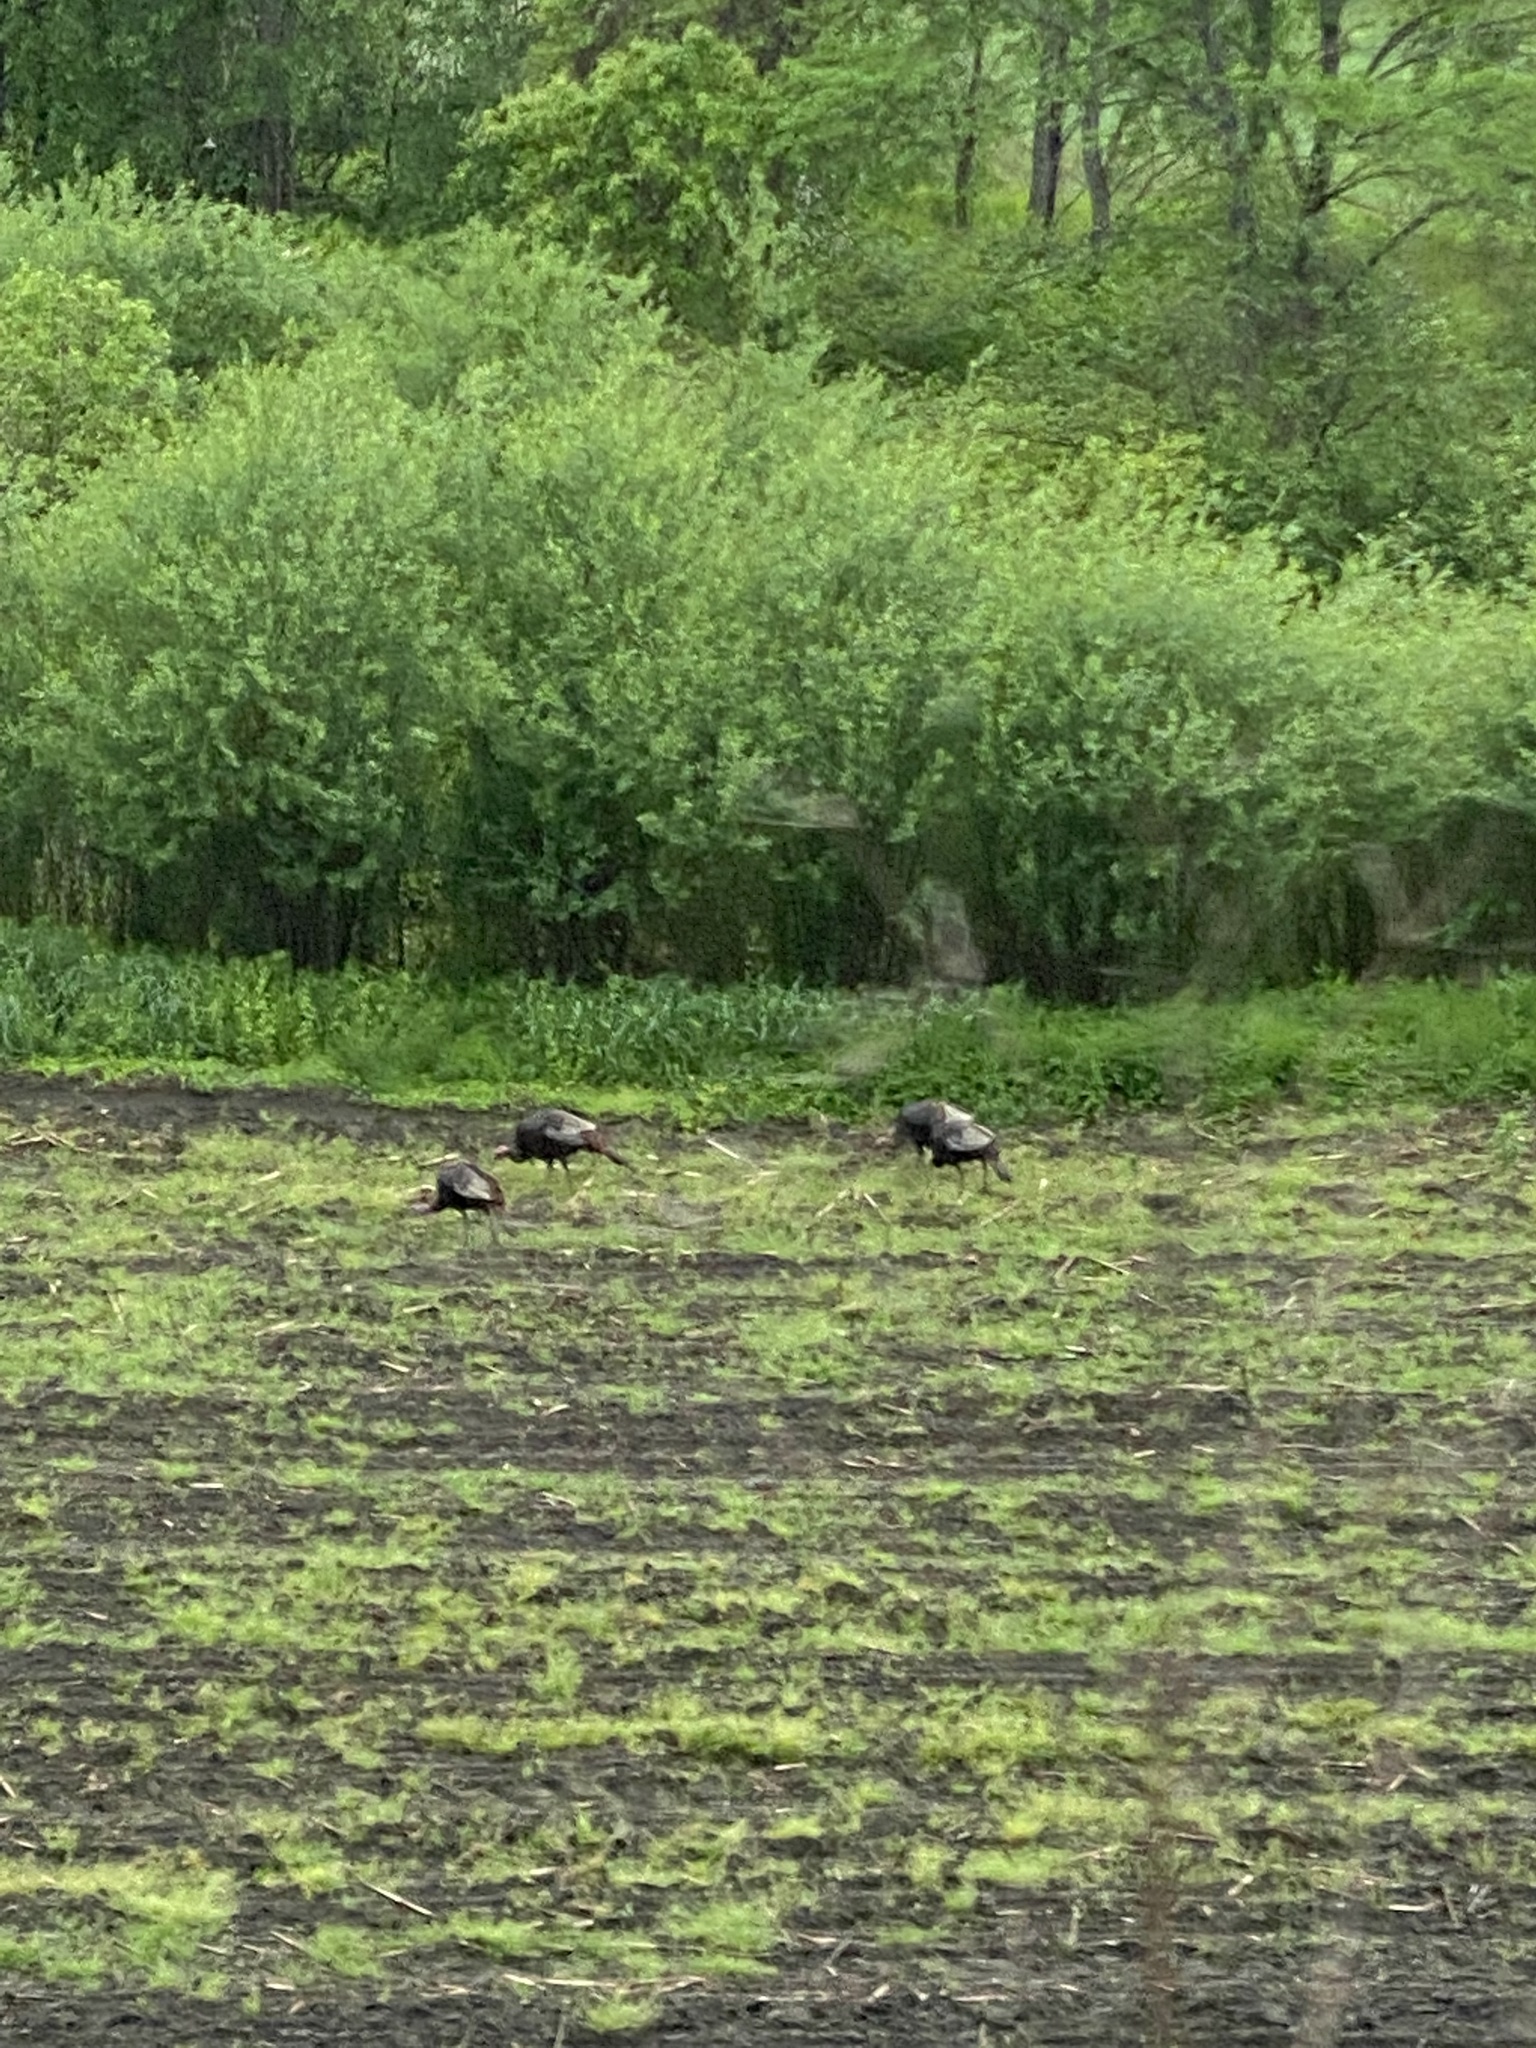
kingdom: Animalia
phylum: Chordata
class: Aves
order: Galliformes
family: Phasianidae
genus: Meleagris
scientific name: Meleagris gallopavo
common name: Wild turkey
